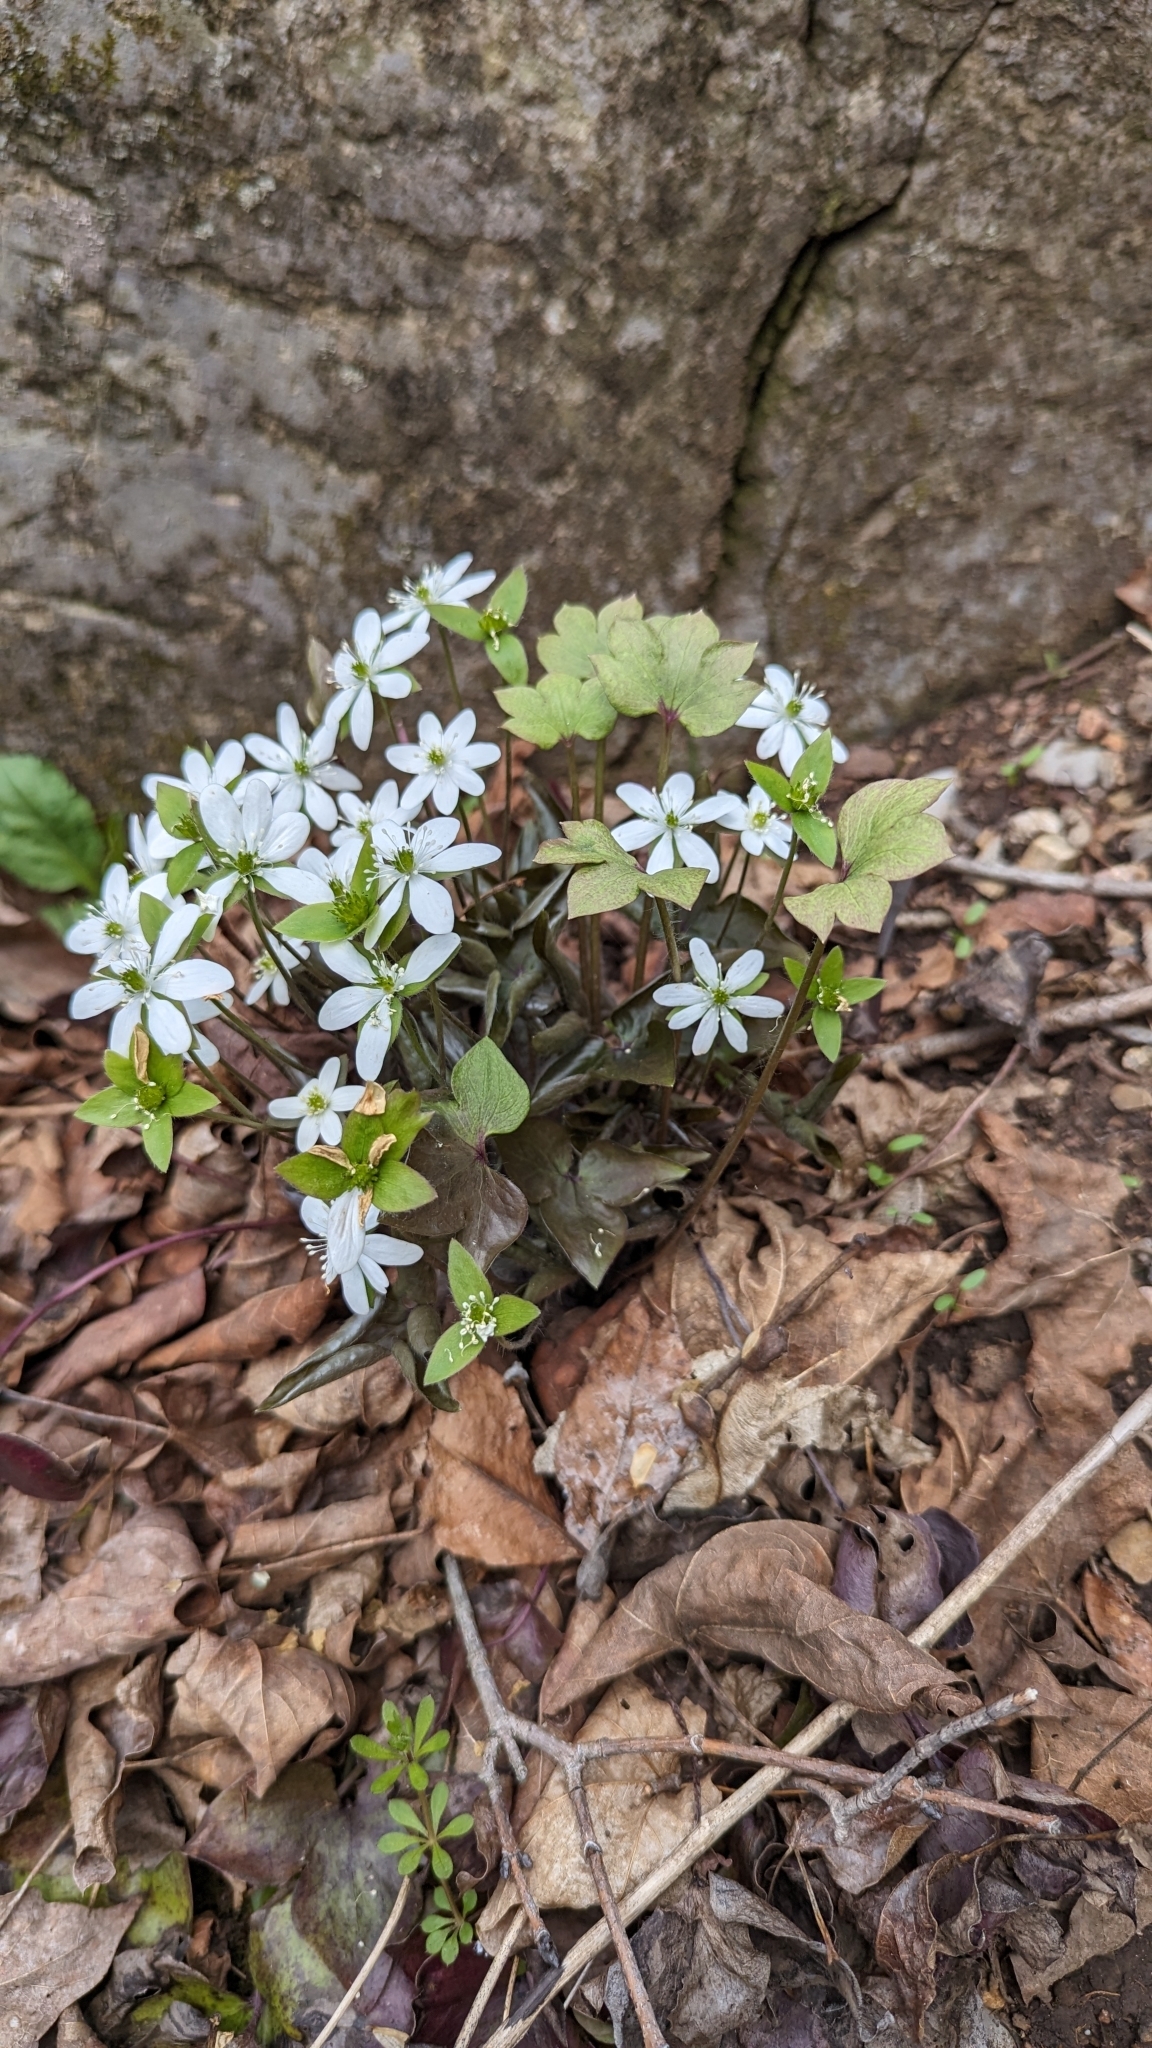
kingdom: Plantae
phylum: Tracheophyta
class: Magnoliopsida
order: Ranunculales
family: Ranunculaceae
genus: Hepatica
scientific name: Hepatica acutiloba
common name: Sharp-lobed hepatica
